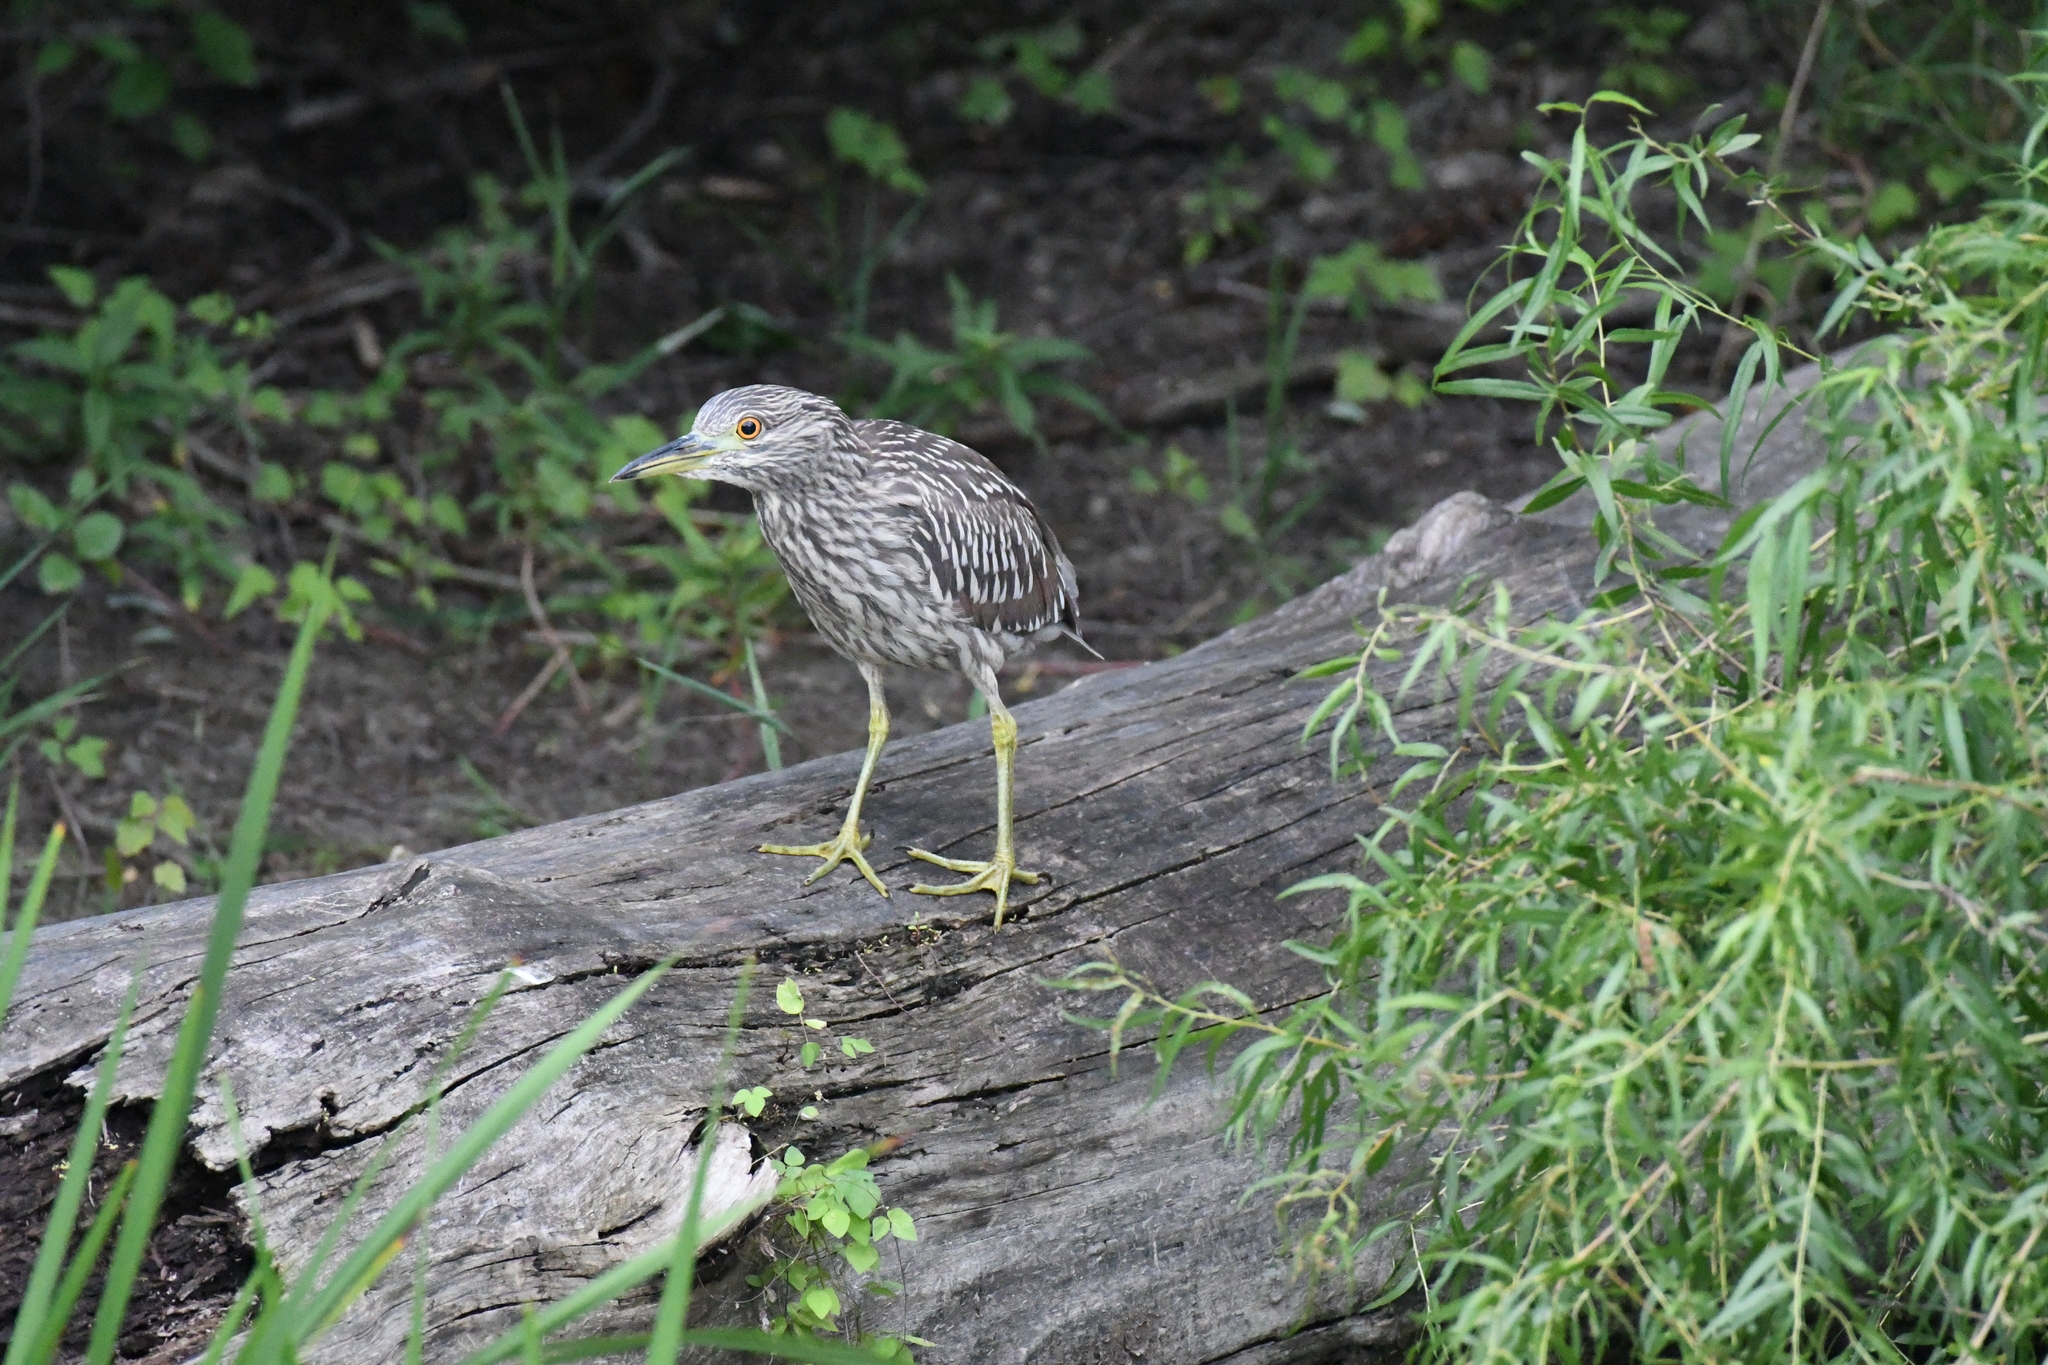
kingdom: Animalia
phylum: Chordata
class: Aves
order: Pelecaniformes
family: Ardeidae
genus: Nycticorax
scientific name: Nycticorax nycticorax
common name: Black-crowned night heron
